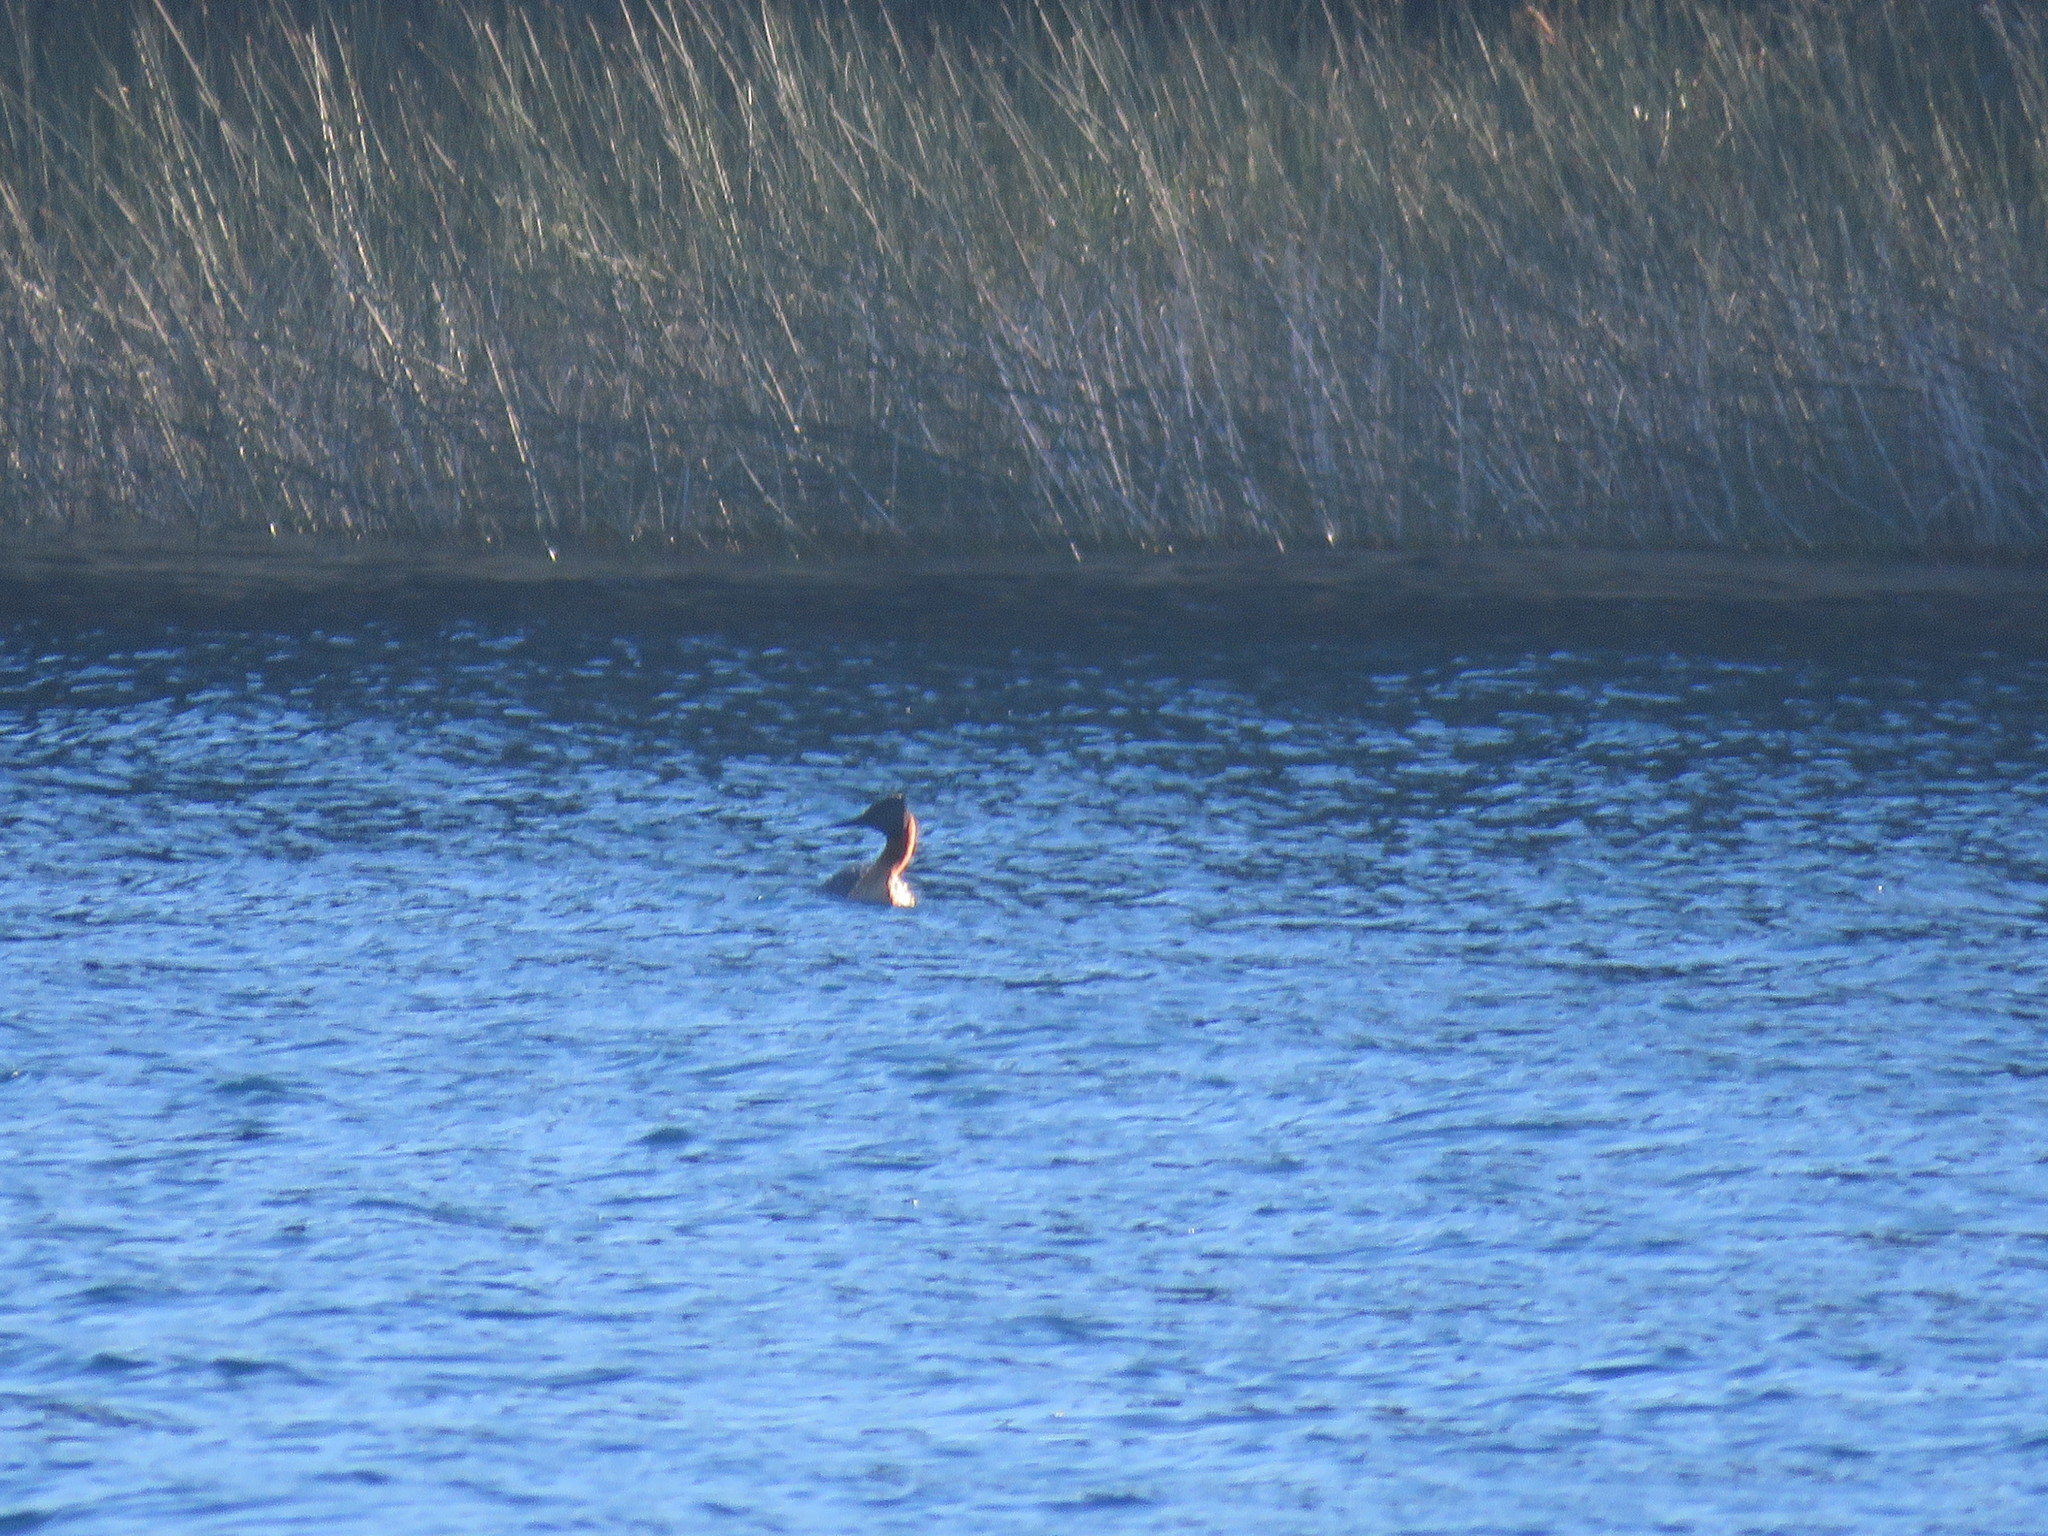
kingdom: Animalia
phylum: Chordata
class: Aves
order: Podicipediformes
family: Podicipedidae
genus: Podiceps
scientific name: Podiceps major
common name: Great grebe
